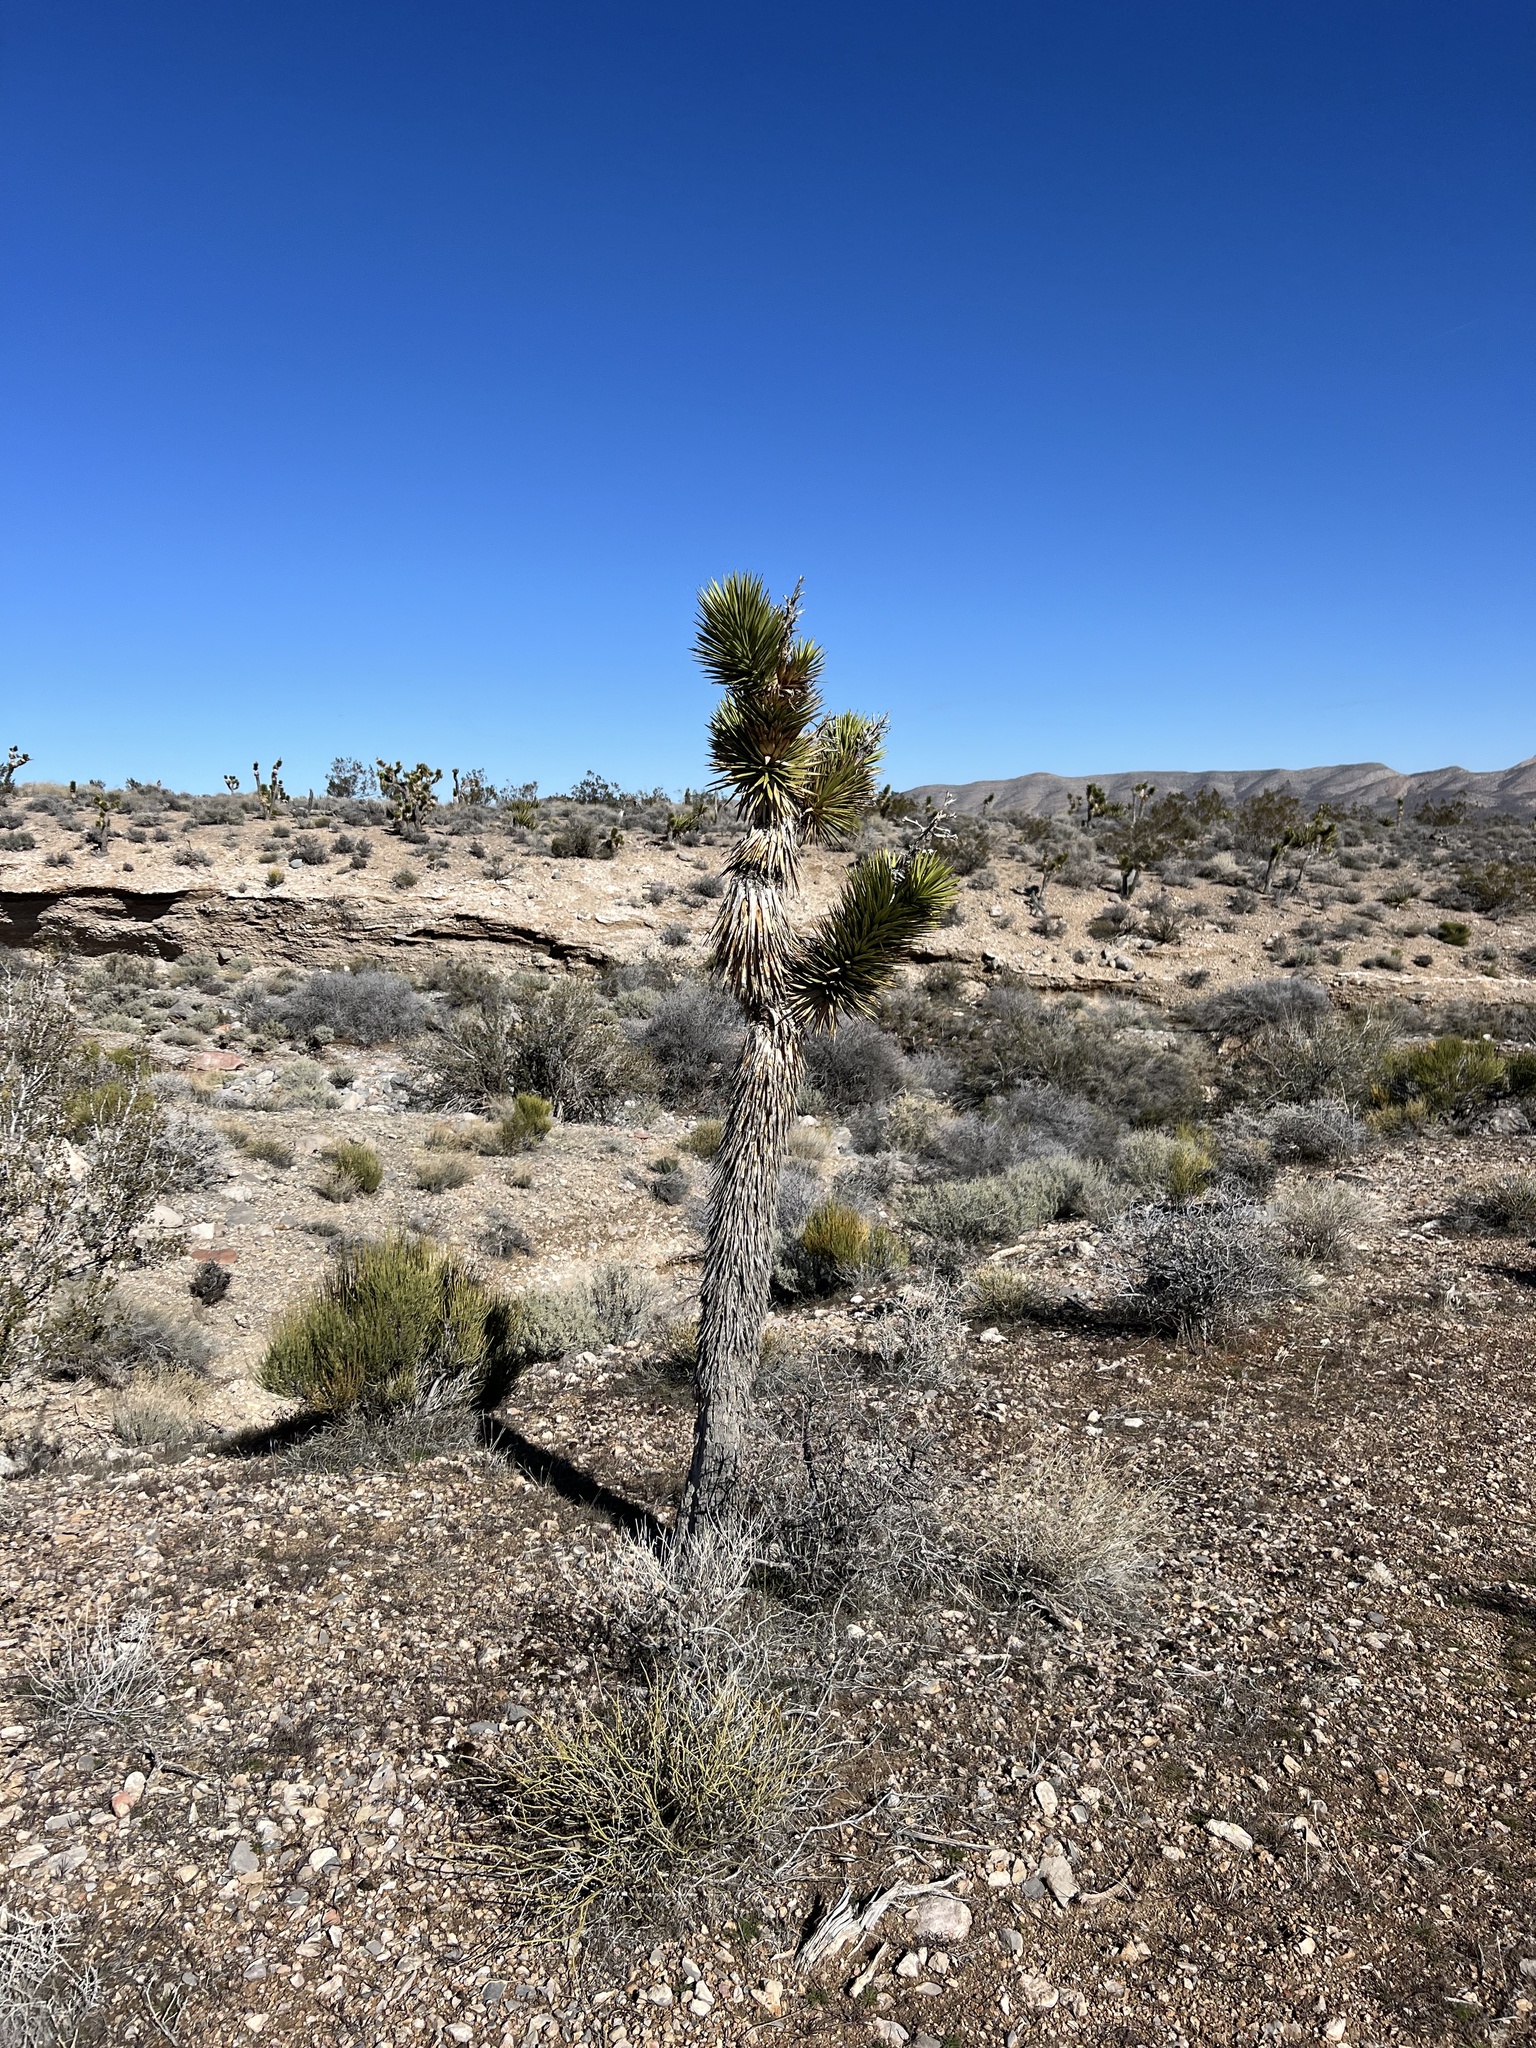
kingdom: Plantae
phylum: Tracheophyta
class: Liliopsida
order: Asparagales
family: Asparagaceae
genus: Yucca
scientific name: Yucca brevifolia
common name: Joshua tree
